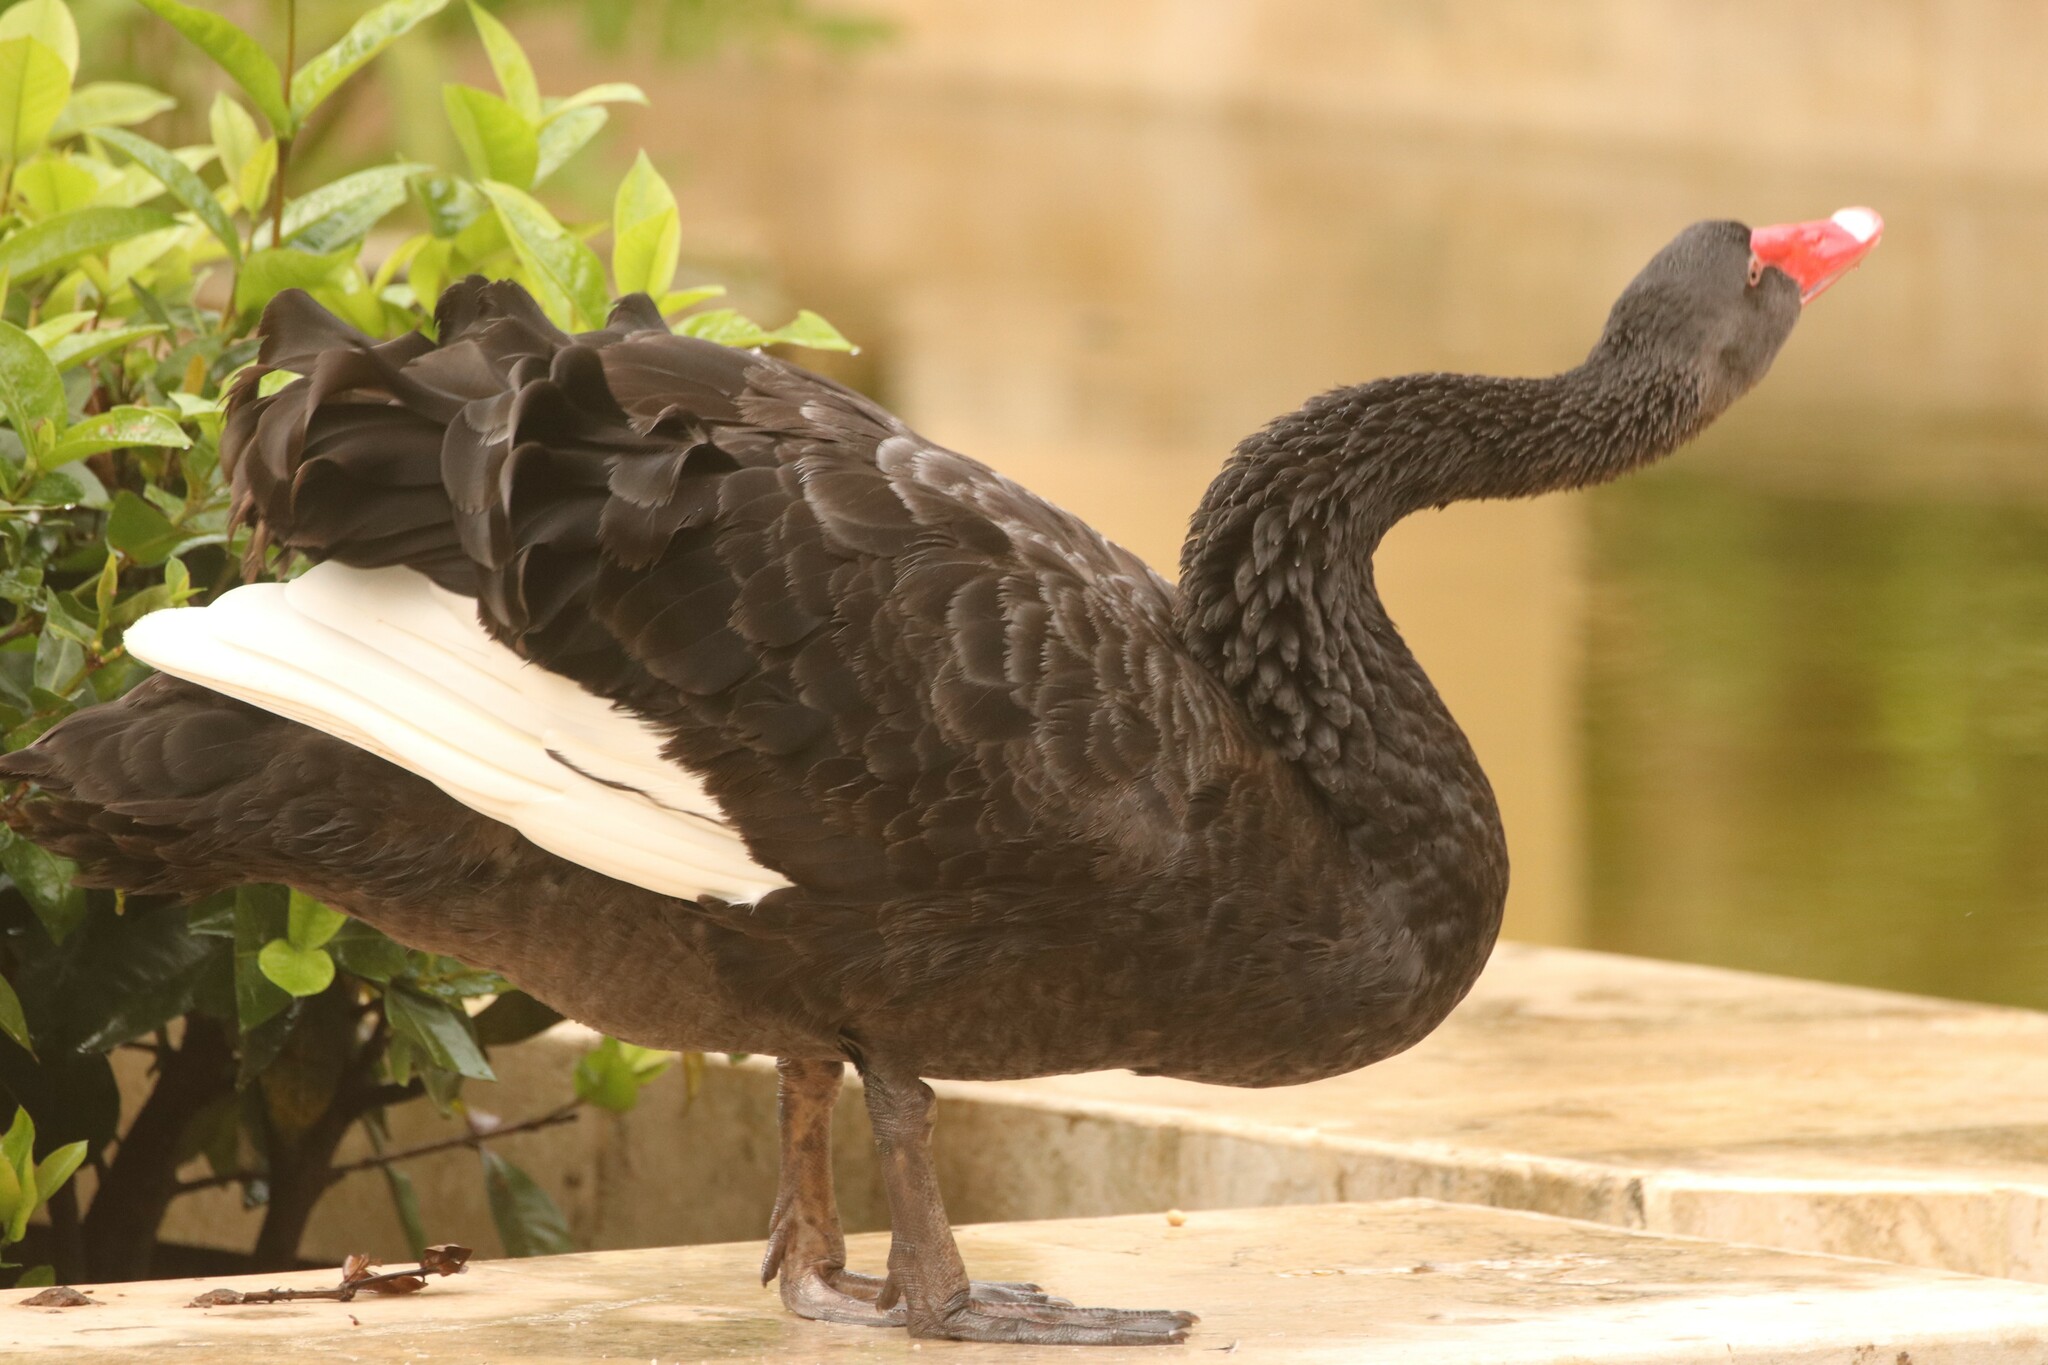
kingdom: Animalia
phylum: Chordata
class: Aves
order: Anseriformes
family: Anatidae
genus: Cygnus
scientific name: Cygnus atratus
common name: Black swan
